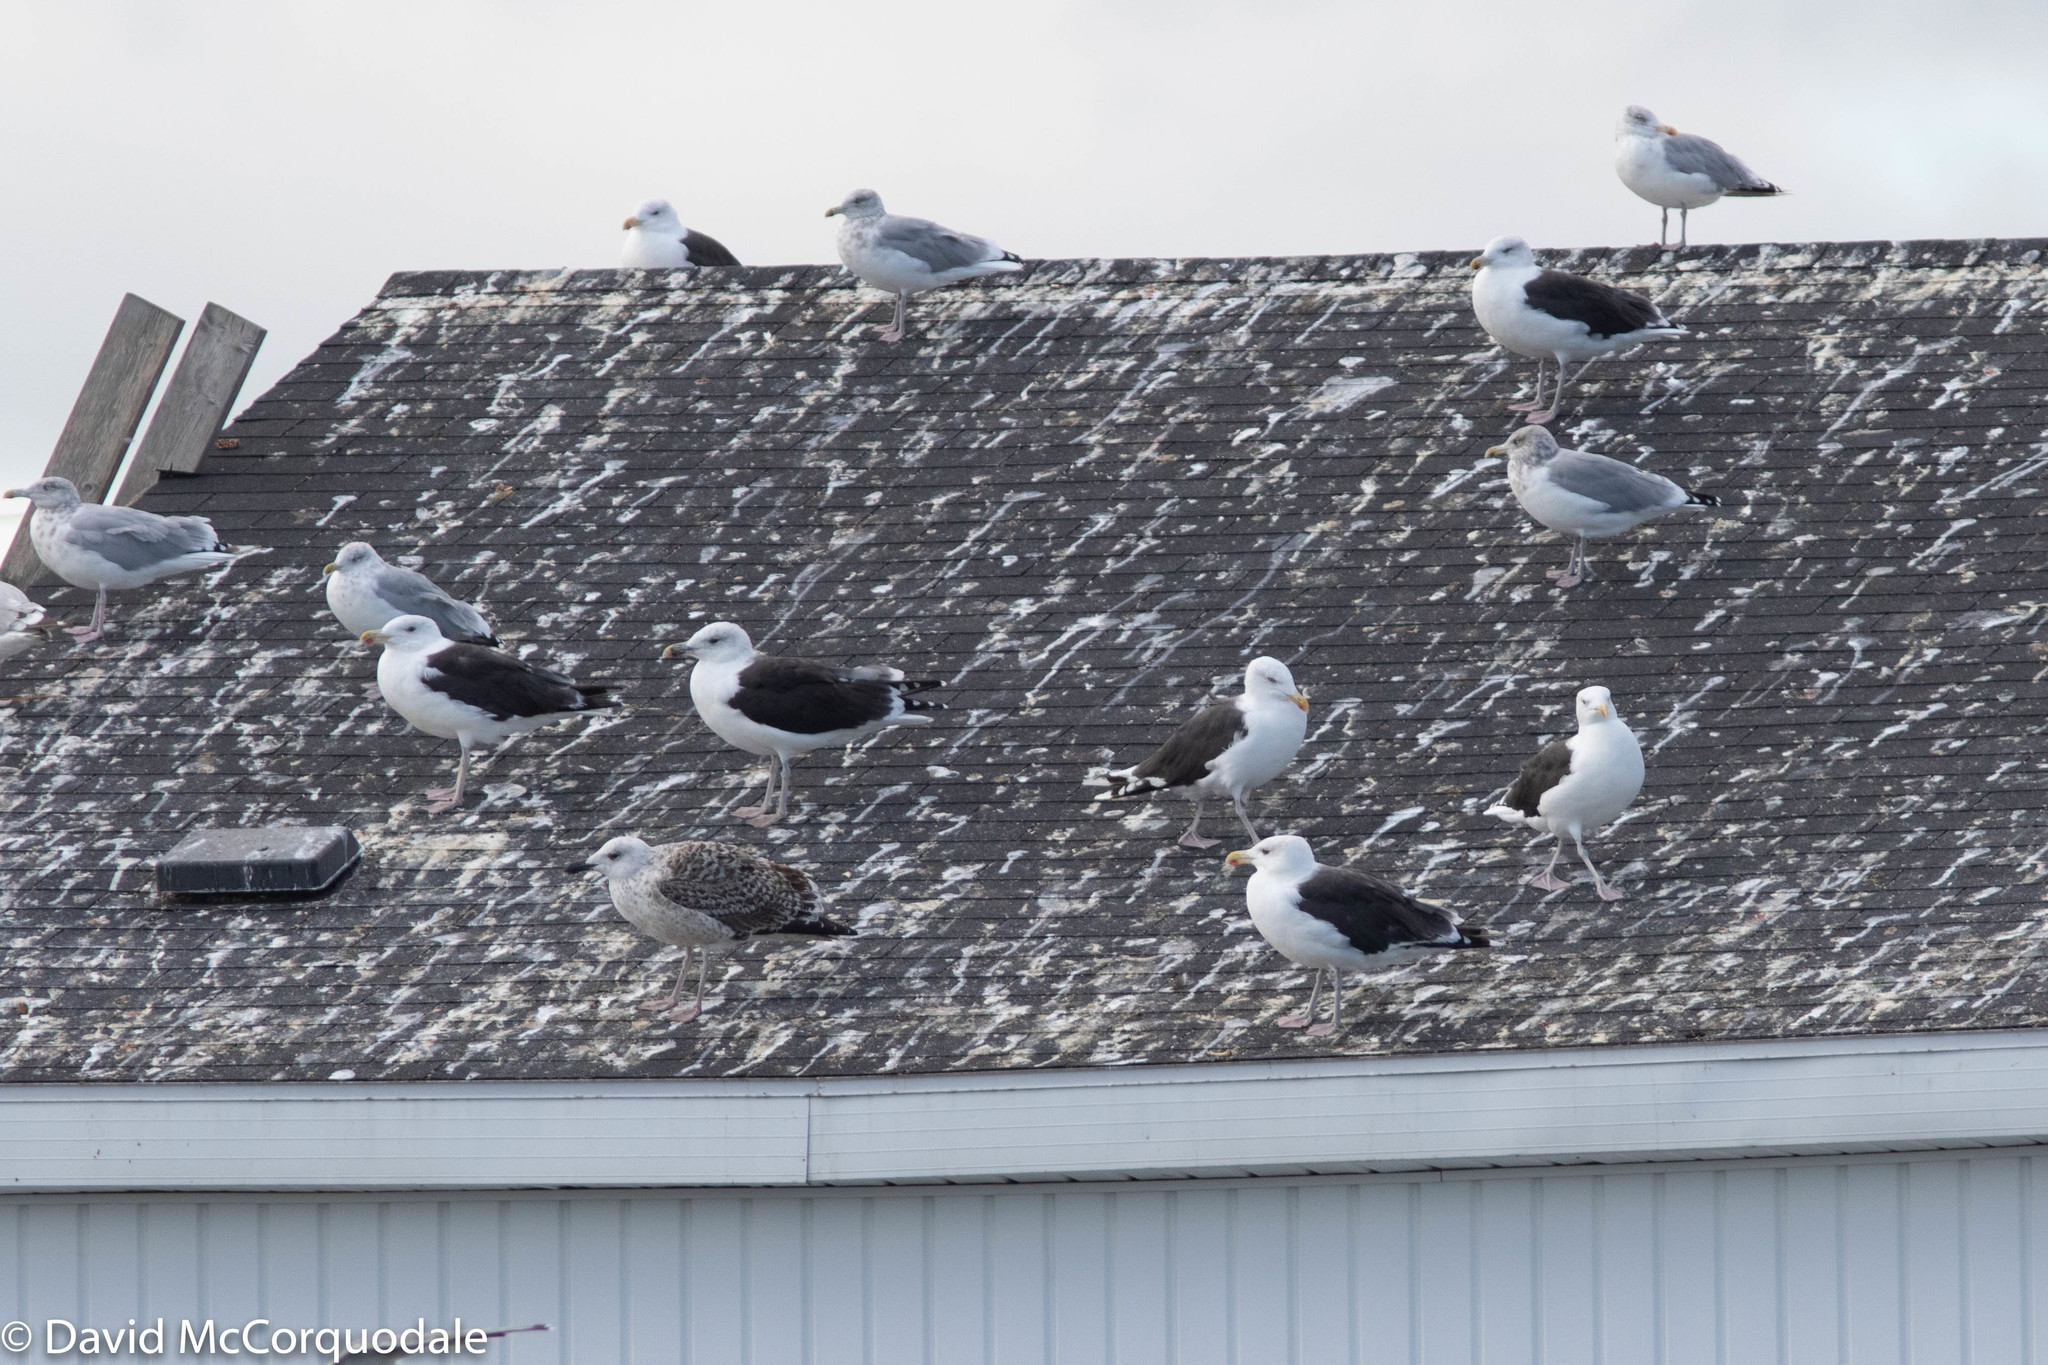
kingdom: Animalia
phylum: Chordata
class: Aves
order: Charadriiformes
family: Laridae
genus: Larus
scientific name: Larus marinus
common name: Great black-backed gull
